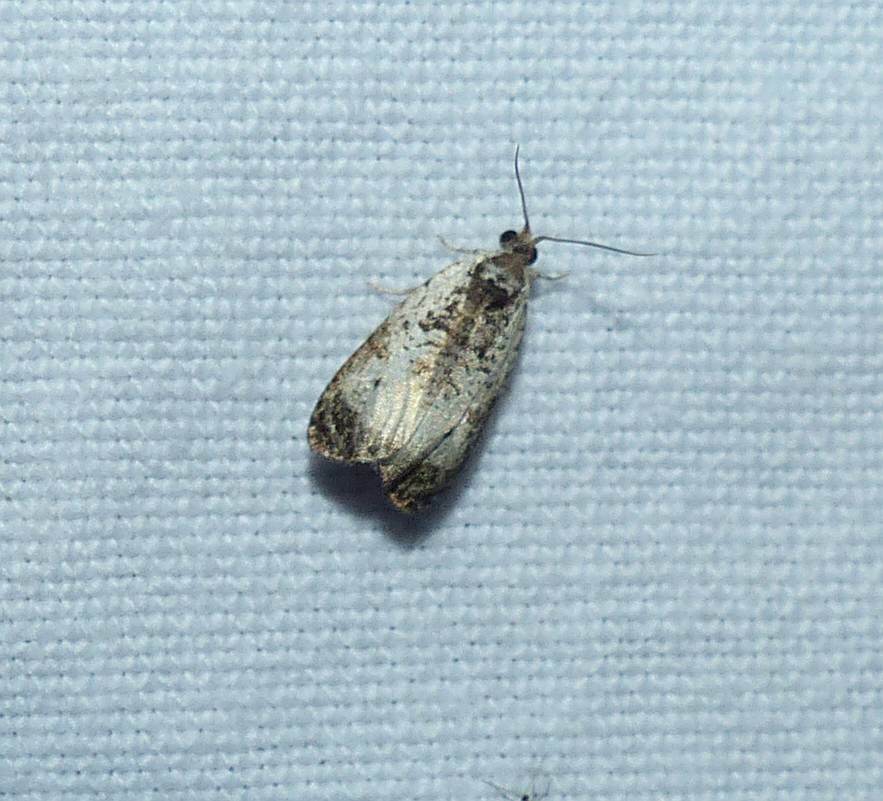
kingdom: Animalia
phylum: Arthropoda
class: Insecta
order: Lepidoptera
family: Tortricidae
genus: Olethreutes
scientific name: Olethreutes malana
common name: Malana leafroller moth
